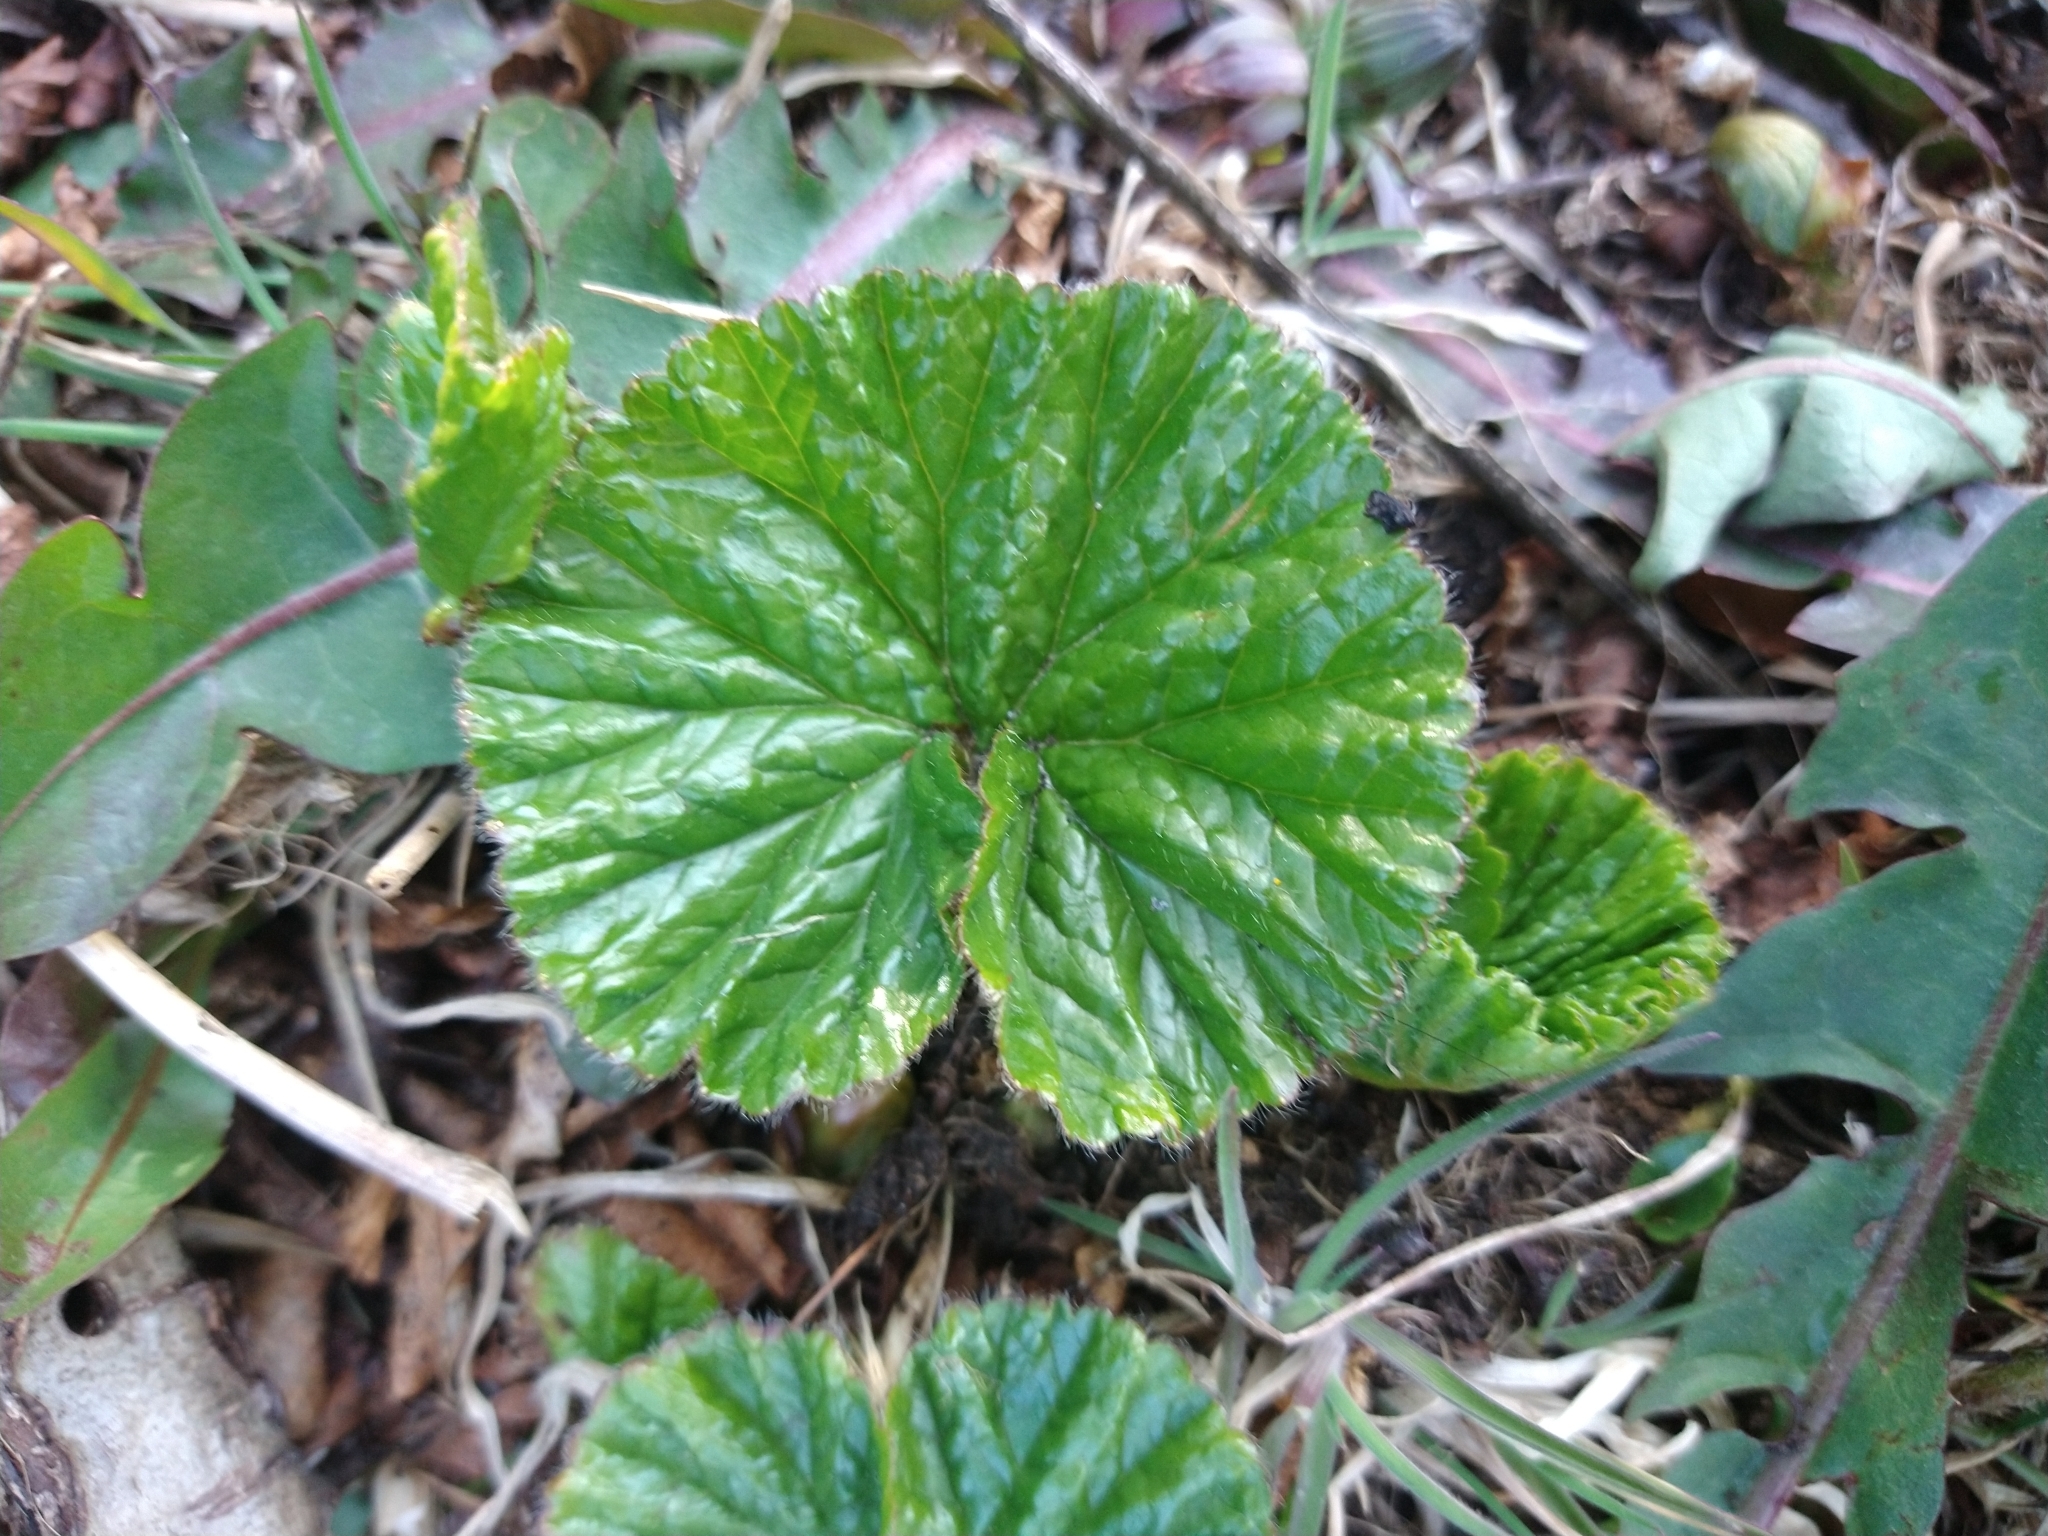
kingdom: Plantae
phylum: Tracheophyta
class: Magnoliopsida
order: Gunnerales
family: Gunneraceae
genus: Gunnera
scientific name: Gunnera magellanica
